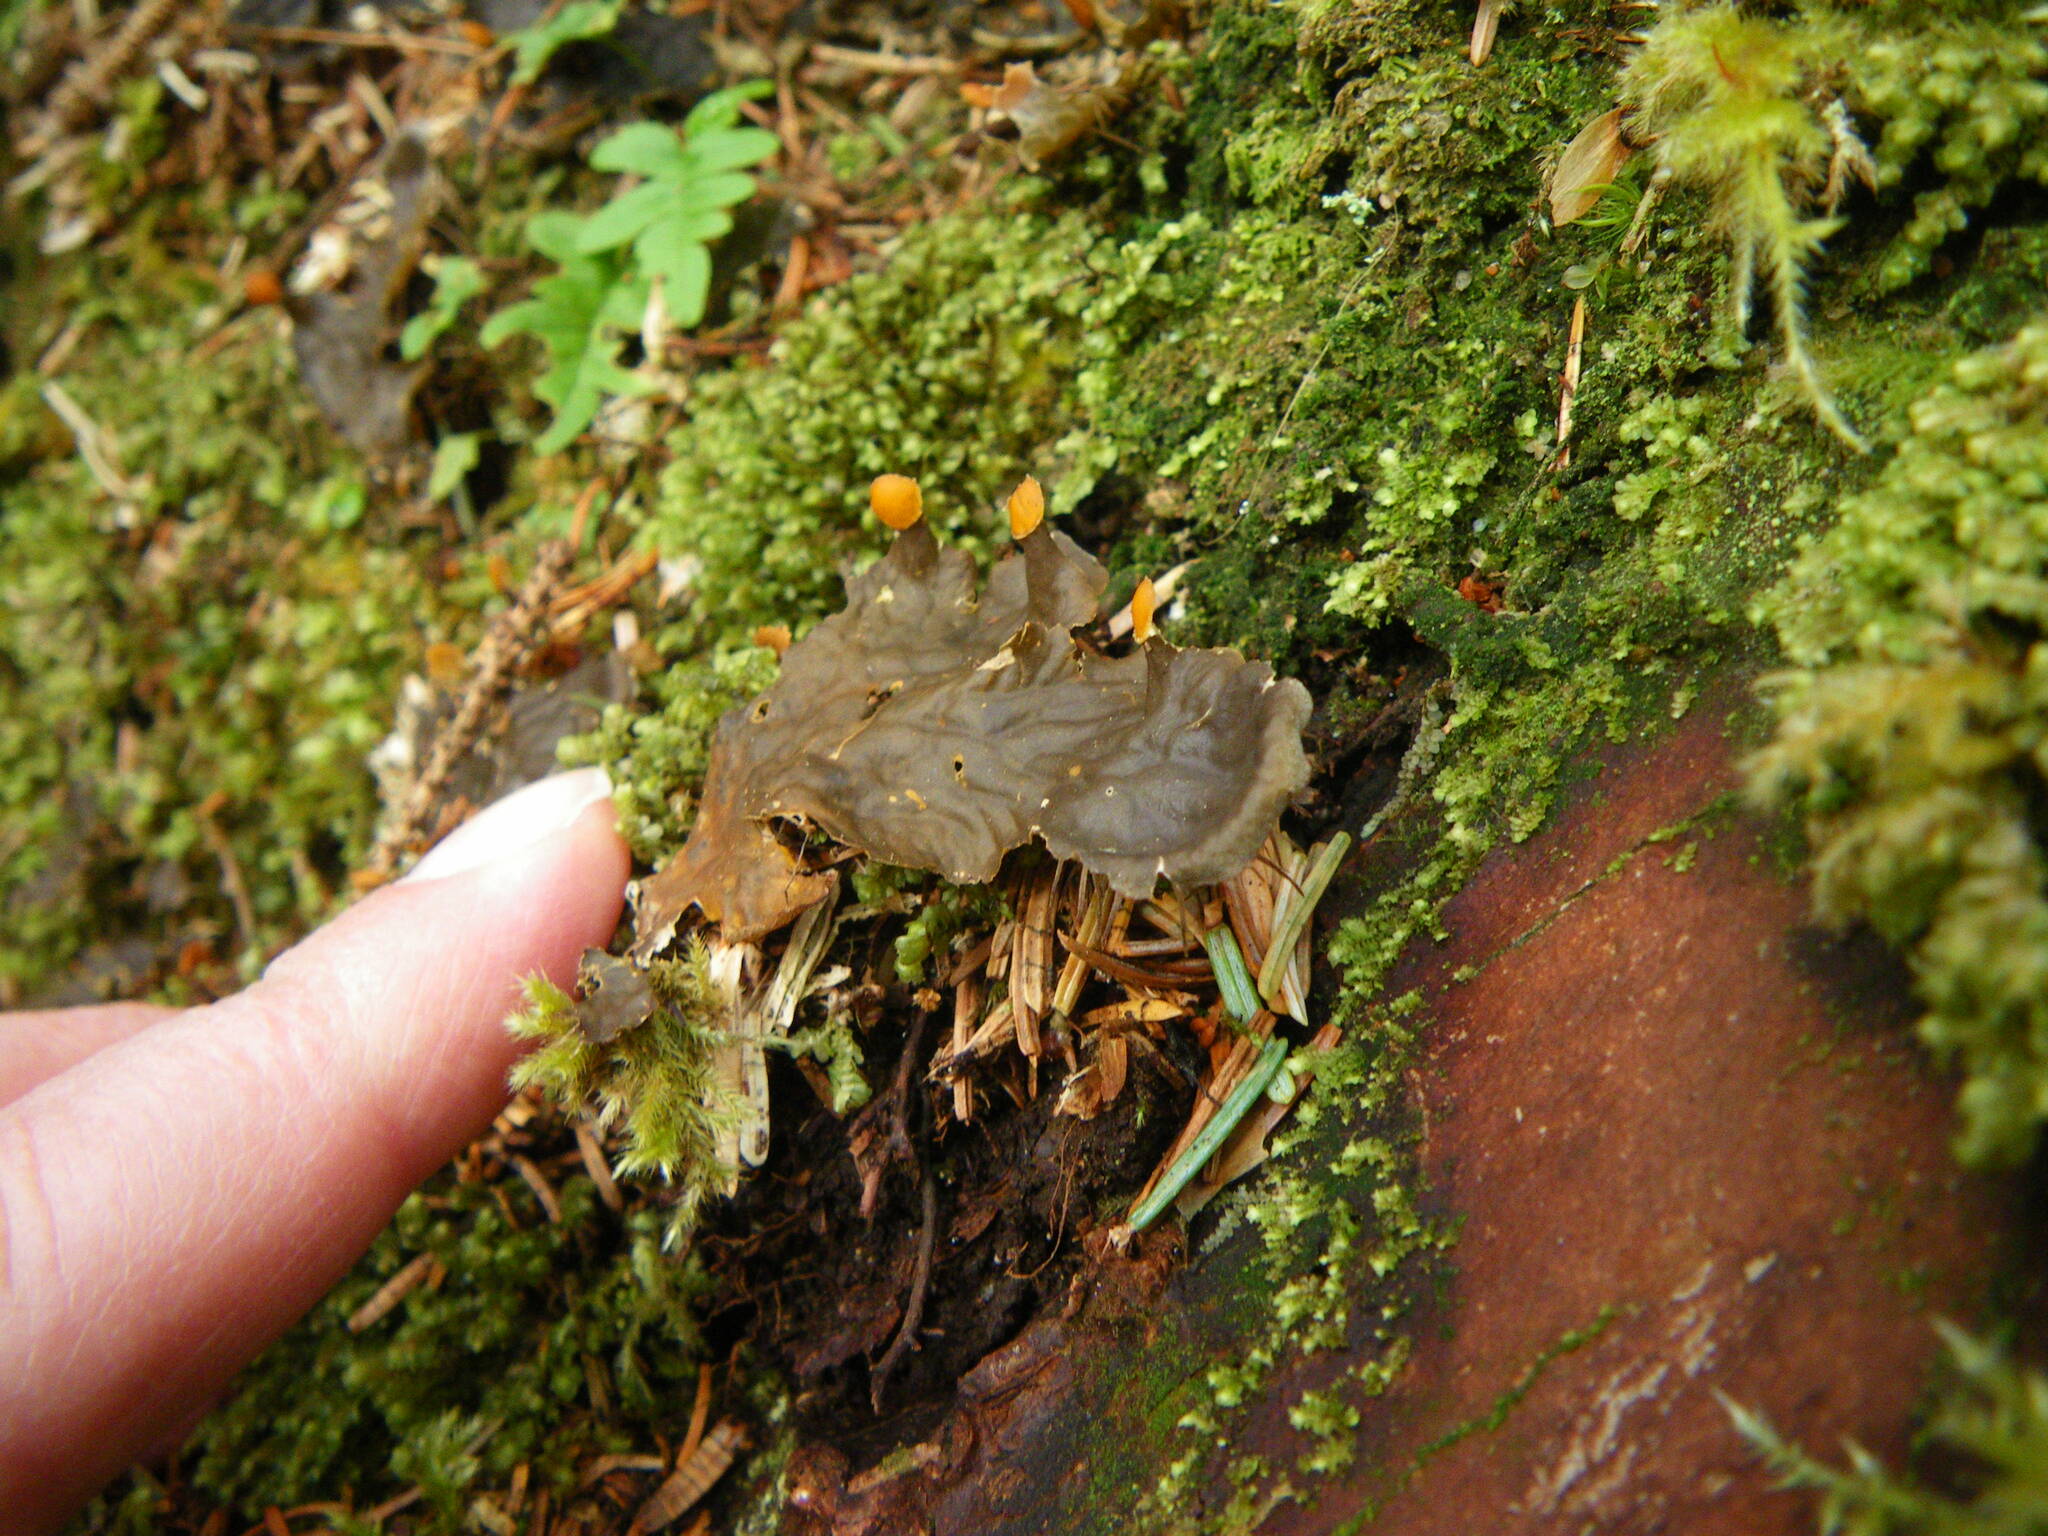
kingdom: Fungi
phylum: Ascomycota
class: Lecanoromycetes
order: Peltigerales
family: Peltigeraceae
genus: Peltigera
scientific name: Peltigera membranacea
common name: Membranous pelt lichen
